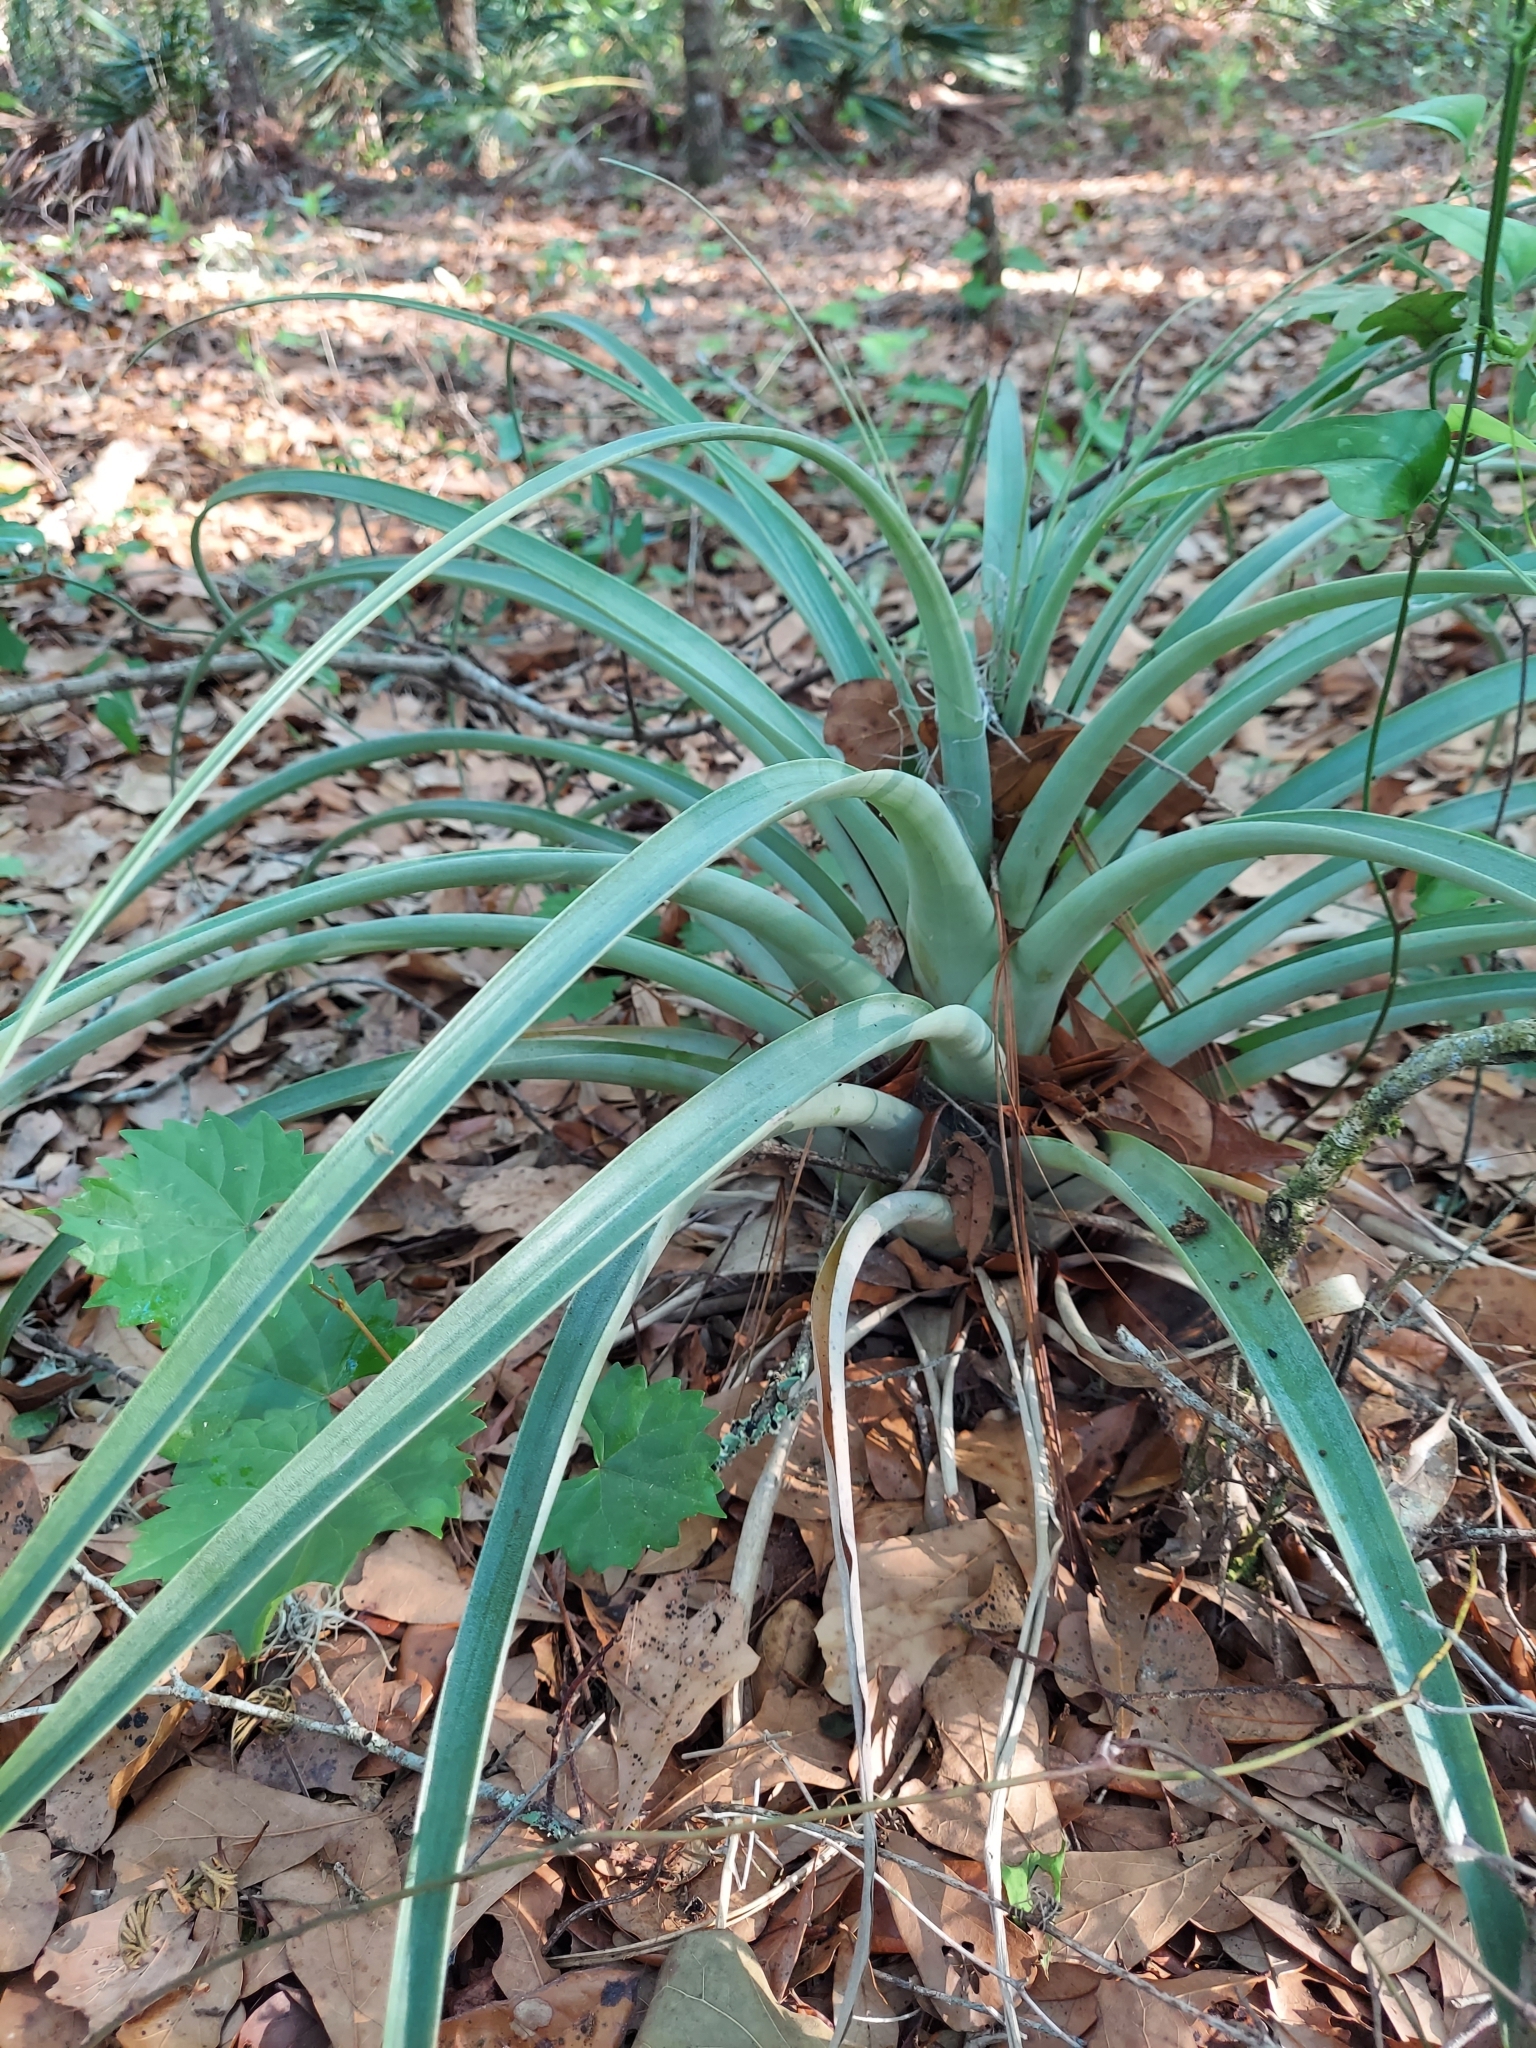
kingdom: Plantae
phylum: Tracheophyta
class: Liliopsida
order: Poales
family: Bromeliaceae
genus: Tillandsia
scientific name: Tillandsia utriculata
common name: Wild pine
